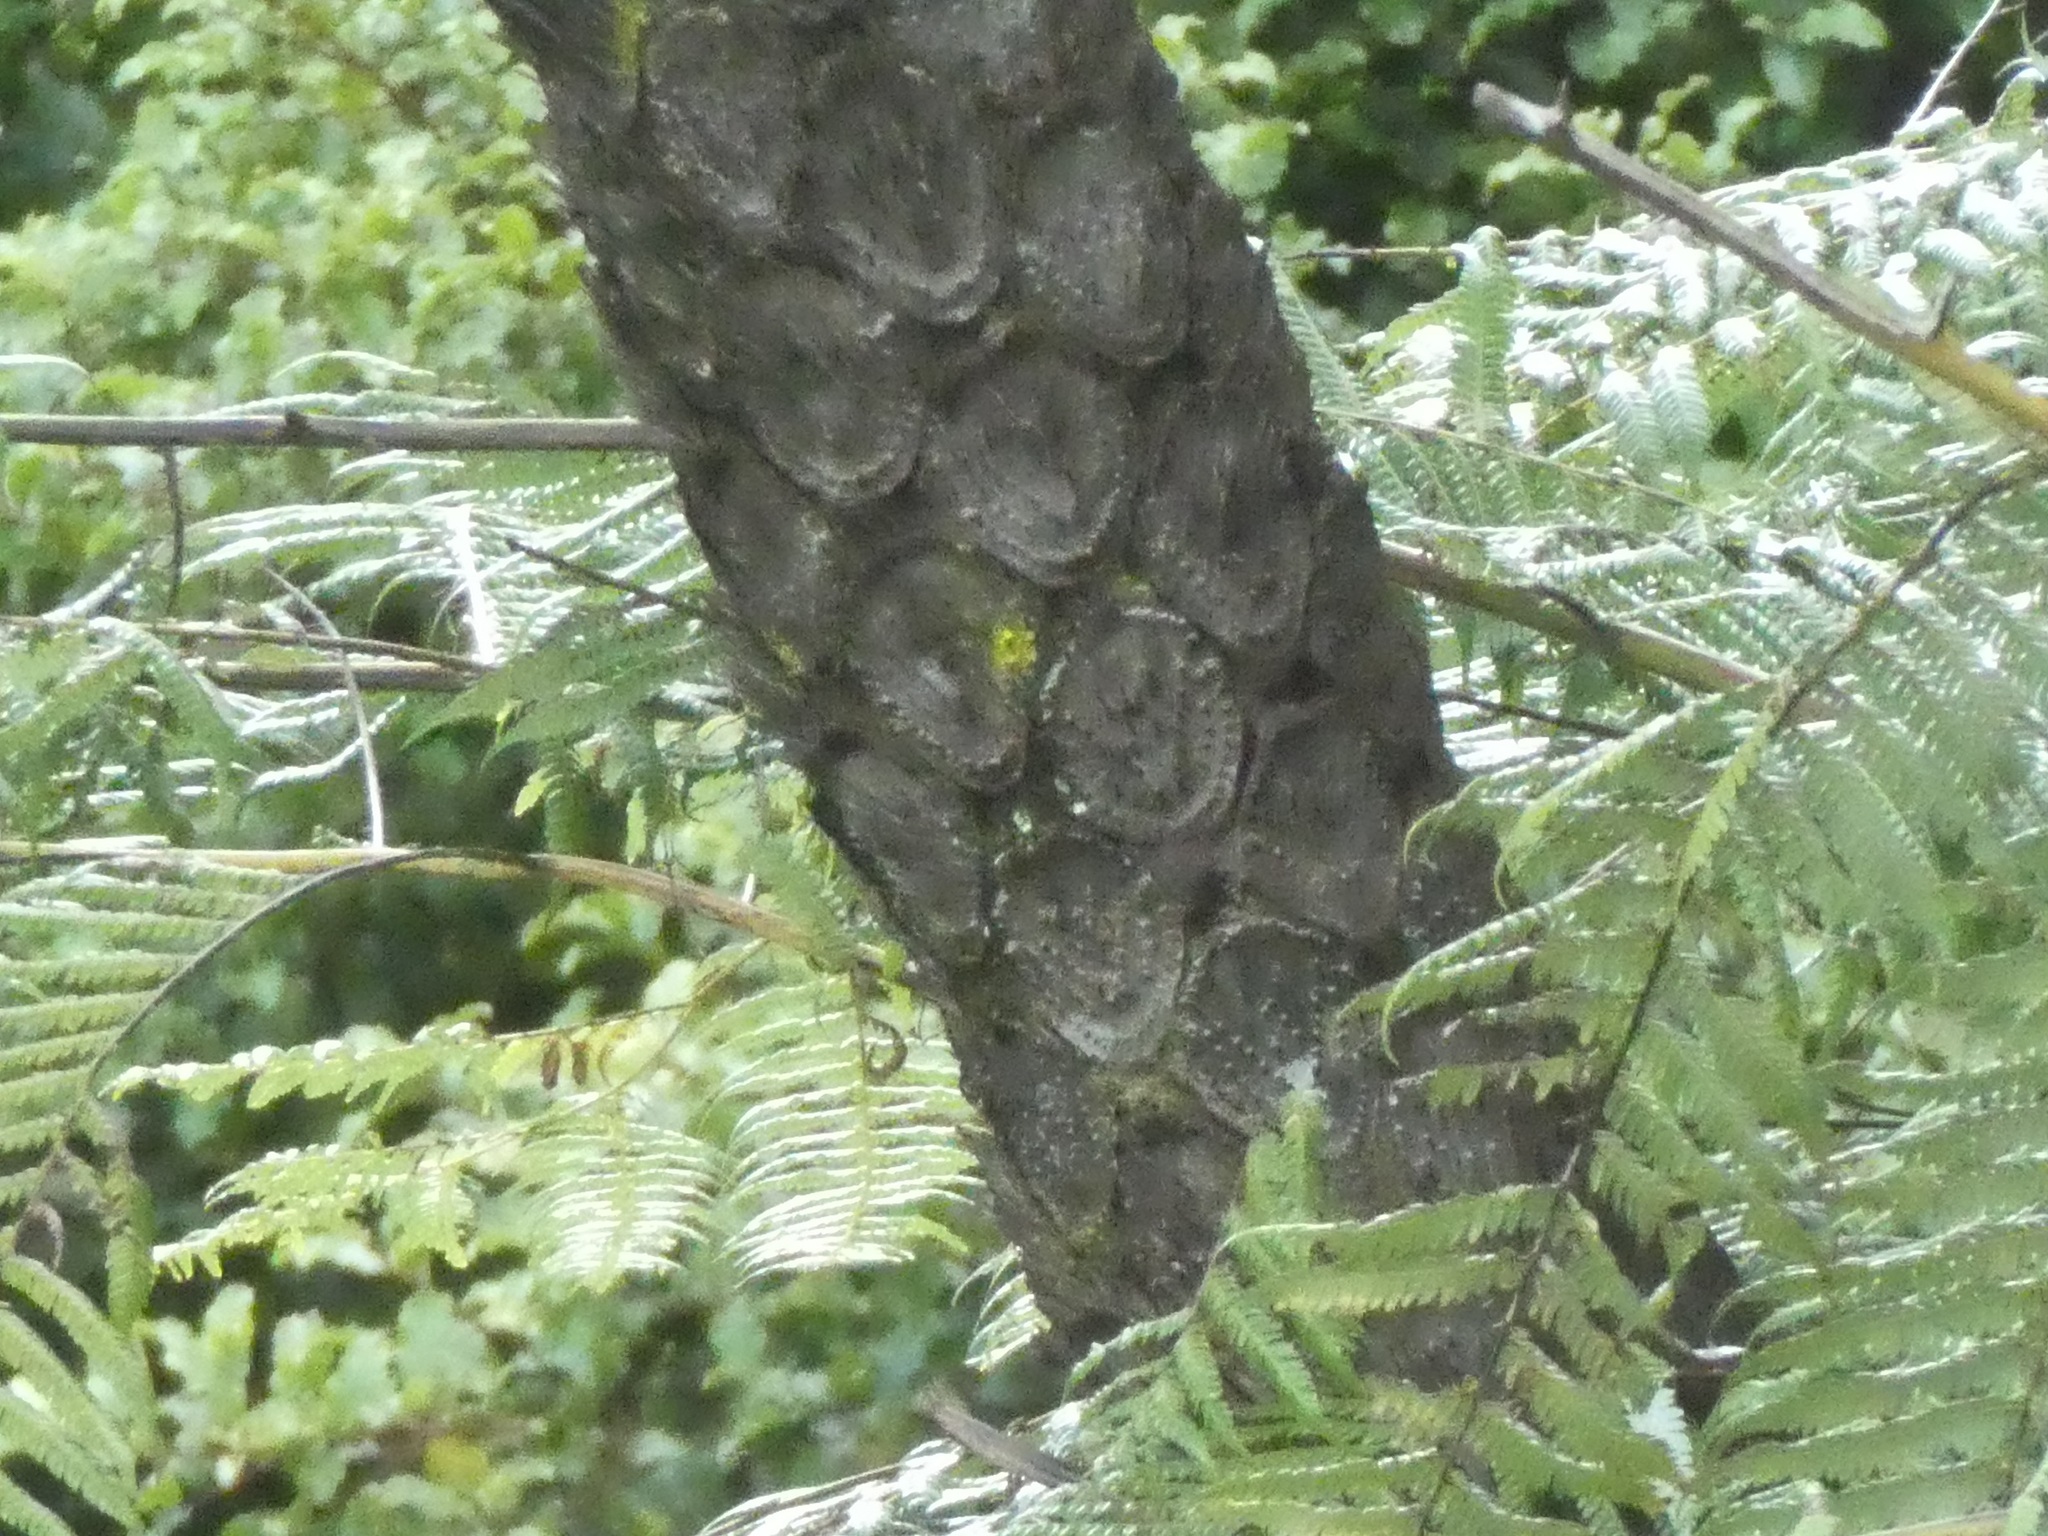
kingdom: Plantae
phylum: Tracheophyta
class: Polypodiopsida
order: Cyatheales
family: Cyatheaceae
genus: Sphaeropteris
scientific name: Sphaeropteris medullaris
